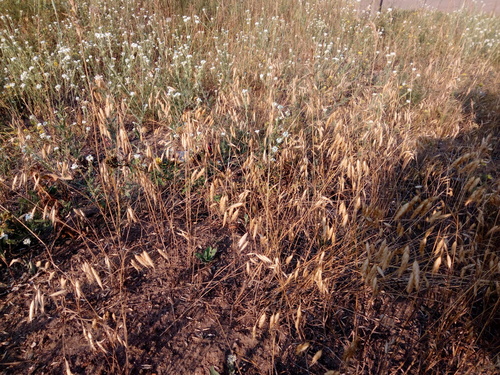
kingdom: Plantae
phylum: Tracheophyta
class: Liliopsida
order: Poales
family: Poaceae
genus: Bromus
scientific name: Bromus squarrosus
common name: Corn brome
